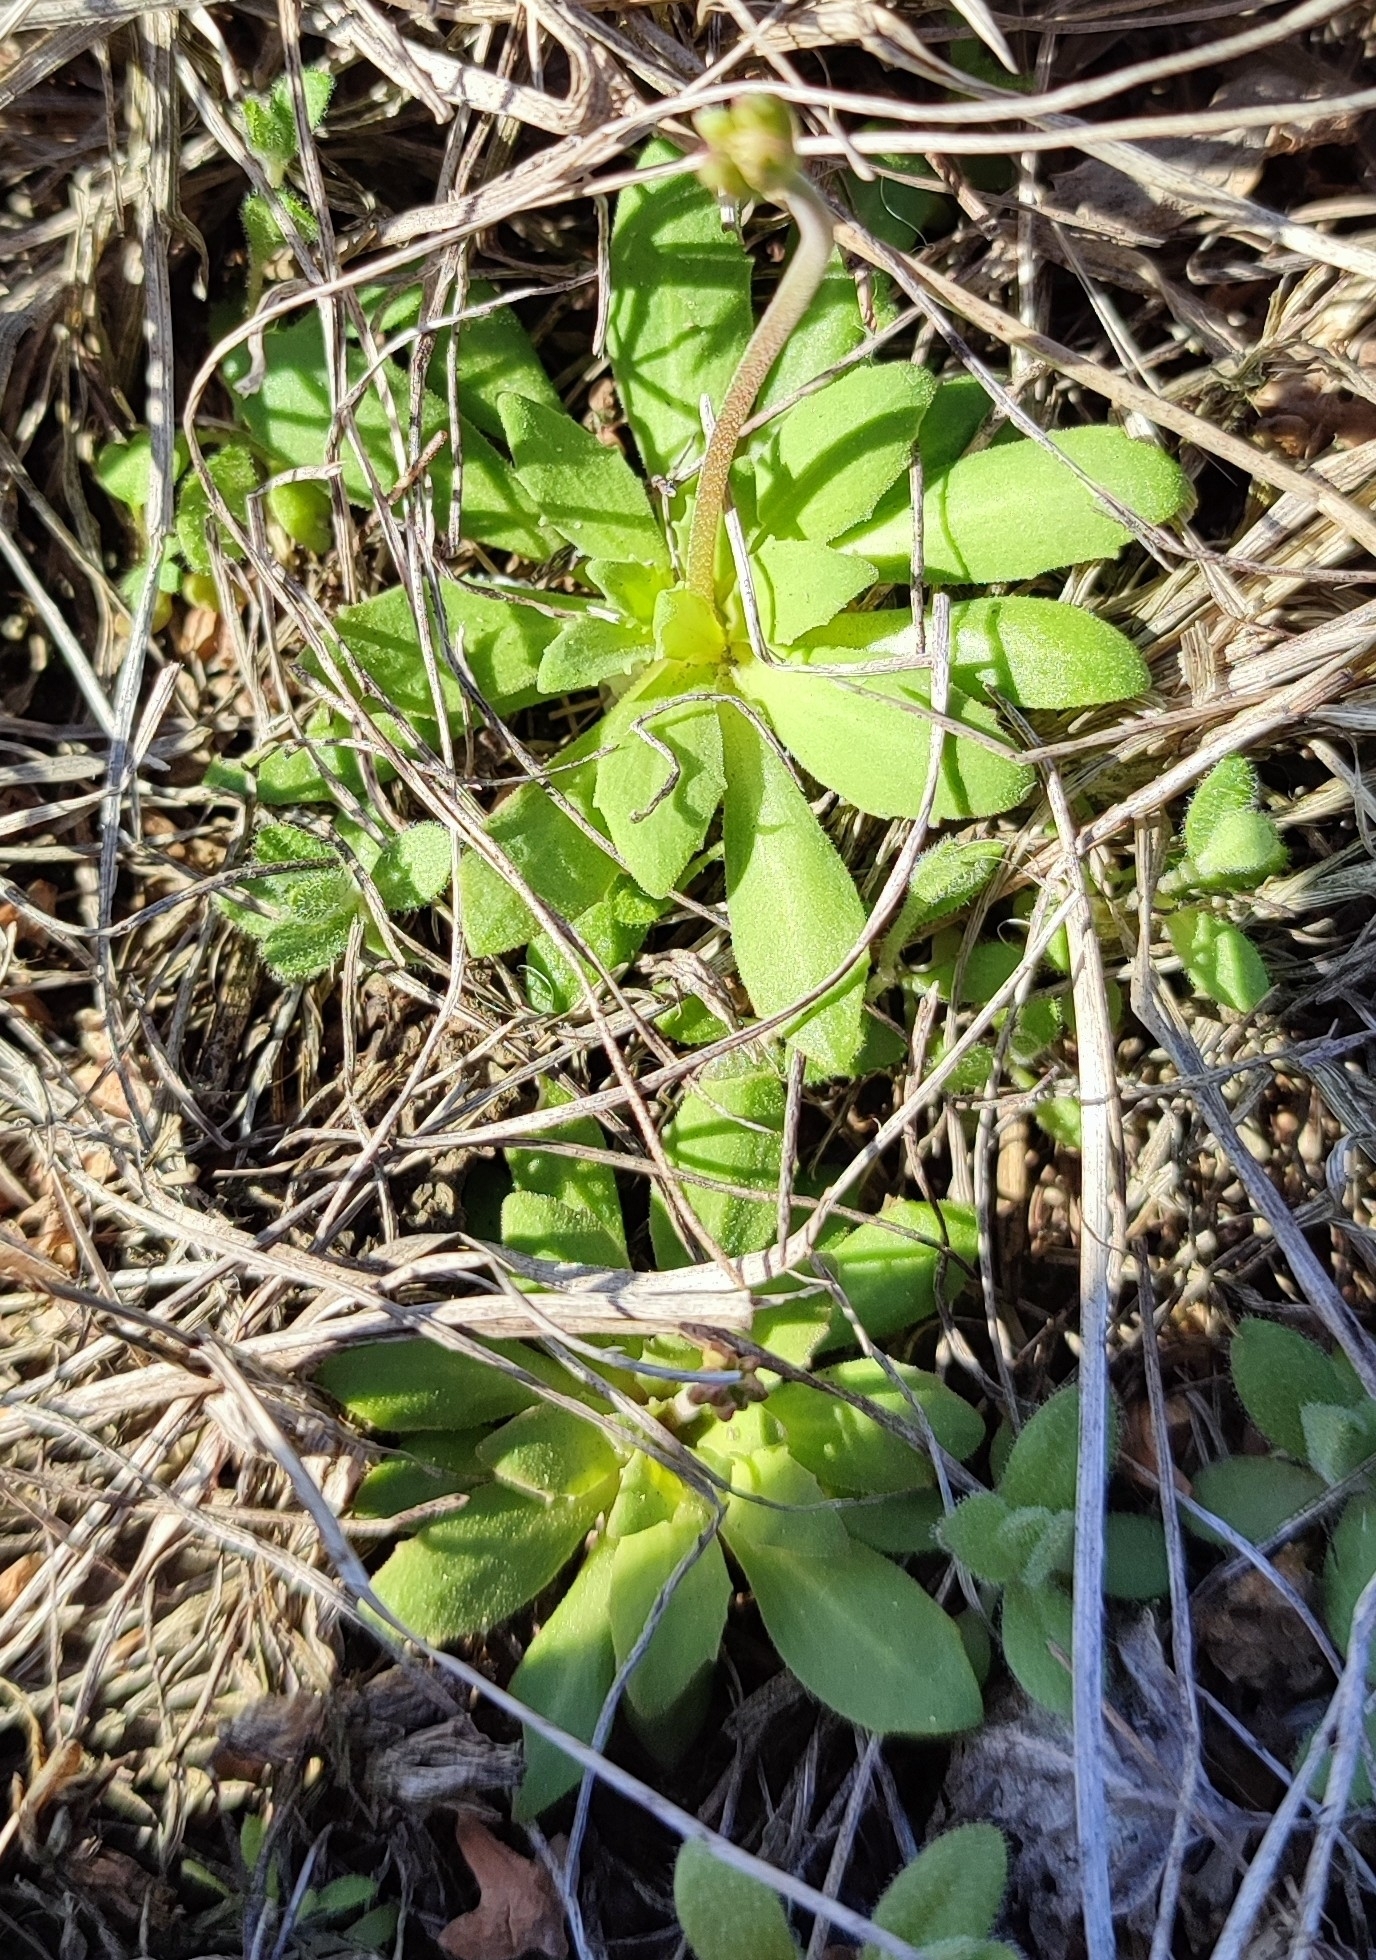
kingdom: Plantae
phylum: Tracheophyta
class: Magnoliopsida
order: Ericales
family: Primulaceae
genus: Androsace
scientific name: Androsace septentrionalis
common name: Hairy northern fairy-candelabra
